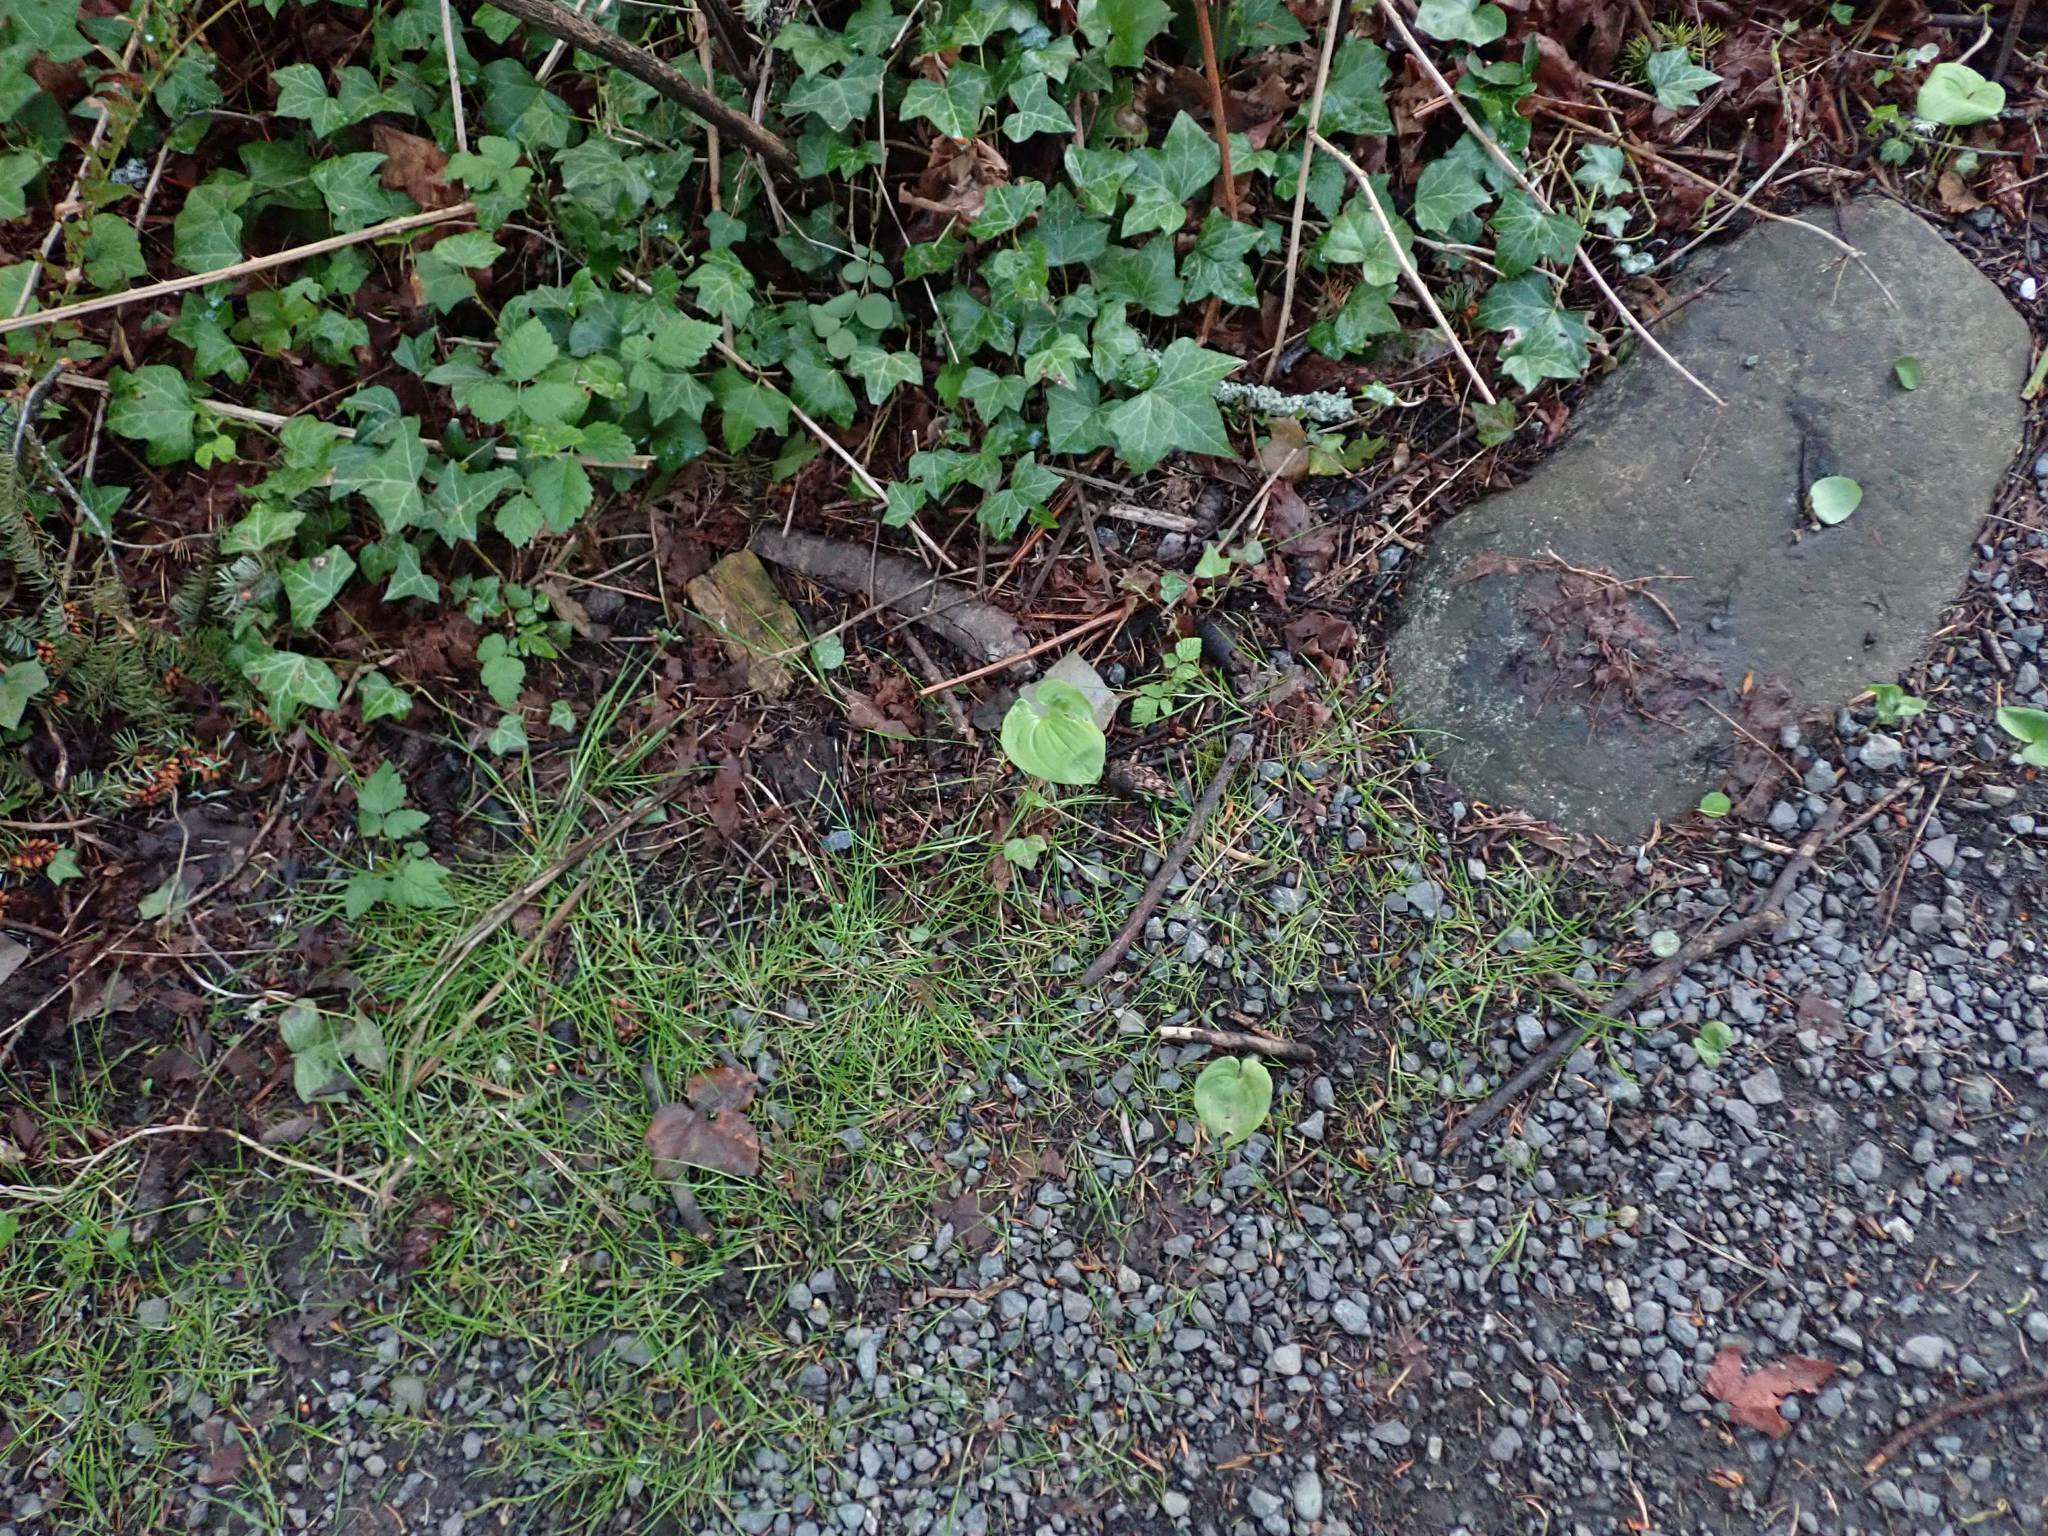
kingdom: Plantae
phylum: Tracheophyta
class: Liliopsida
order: Asparagales
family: Asparagaceae
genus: Maianthemum
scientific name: Maianthemum dilatatum
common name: False lily-of-the-valley
